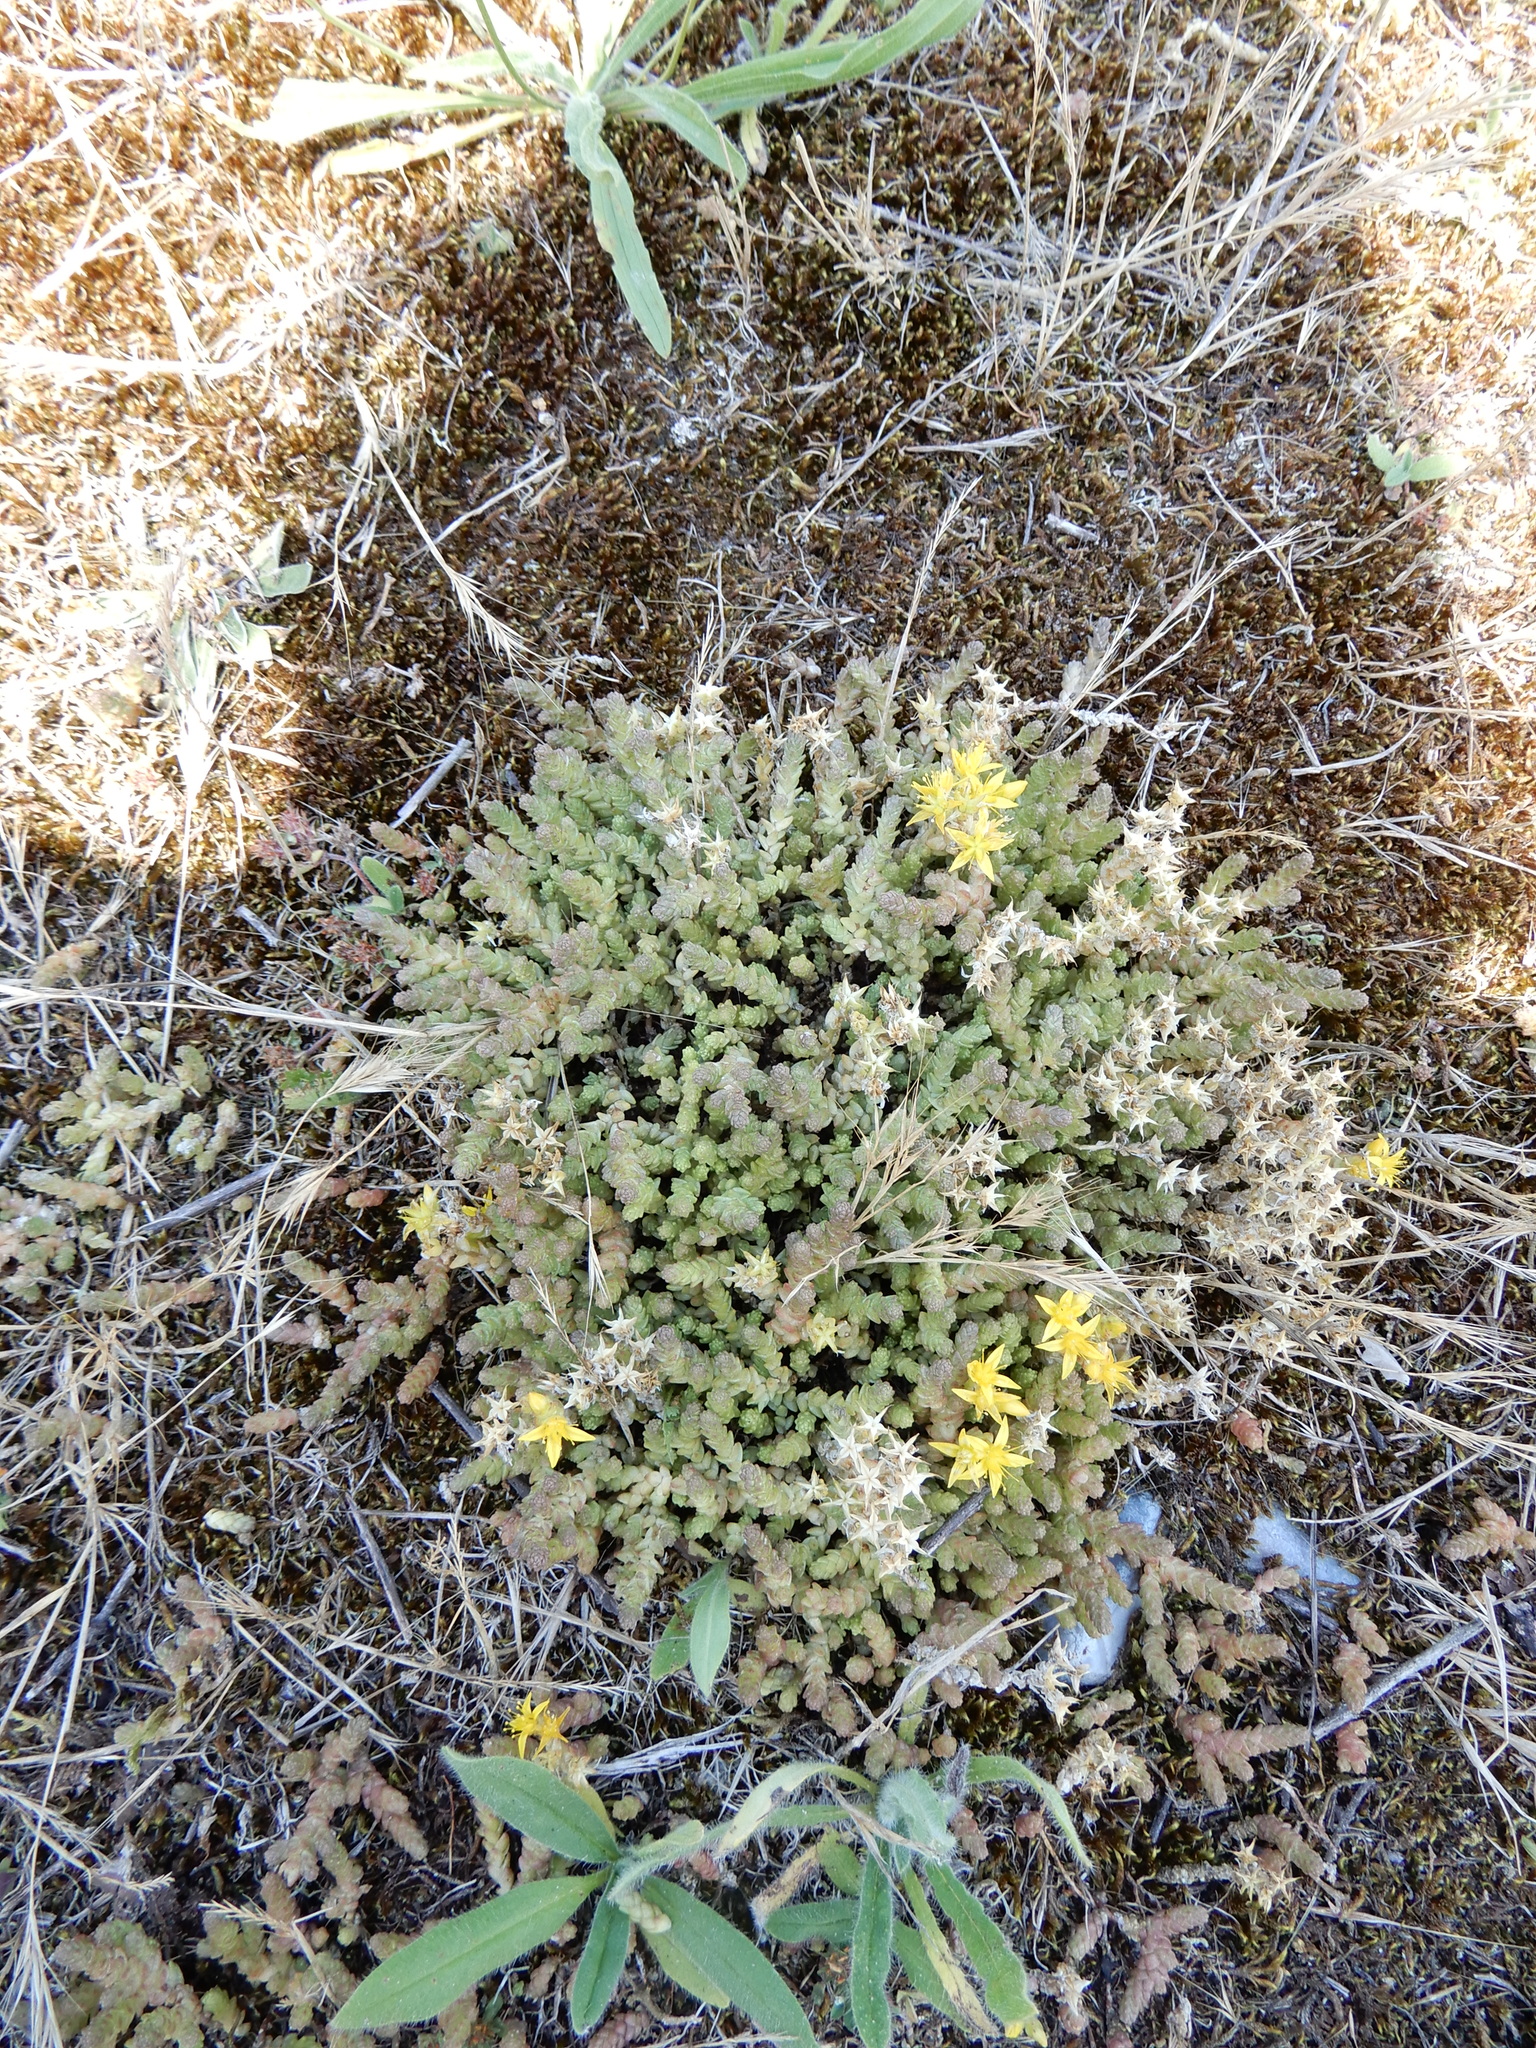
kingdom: Plantae
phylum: Tracheophyta
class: Magnoliopsida
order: Saxifragales
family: Crassulaceae
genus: Sedum
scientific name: Sedum acre
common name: Biting stonecrop
